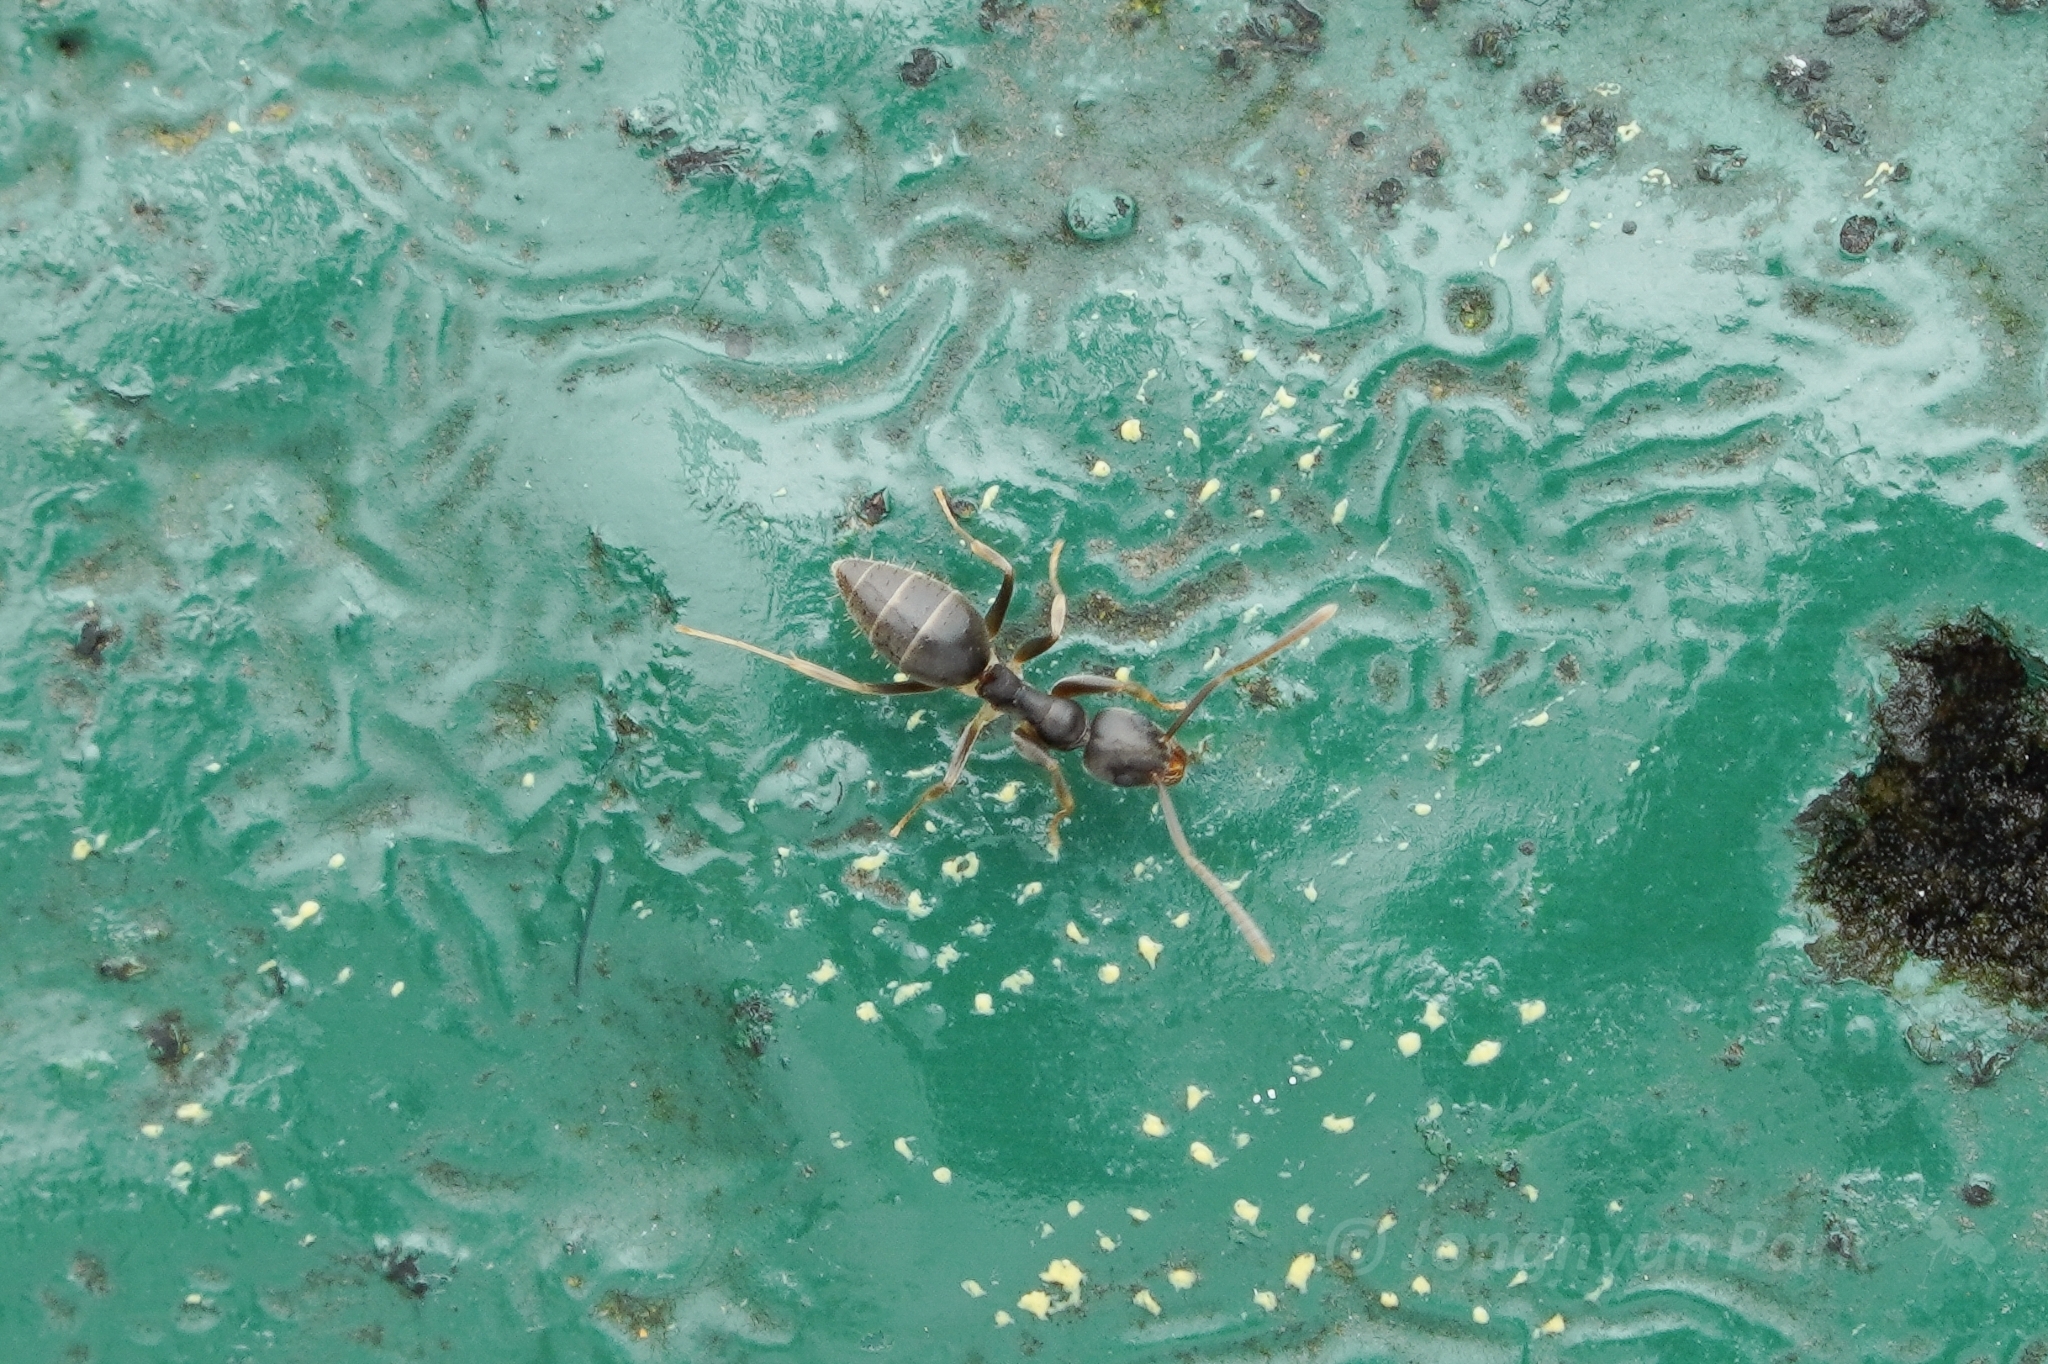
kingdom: Animalia
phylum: Arthropoda
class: Insecta
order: Hymenoptera
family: Formicidae
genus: Technomyrmex
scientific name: Technomyrmex vitiensis
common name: Ant
